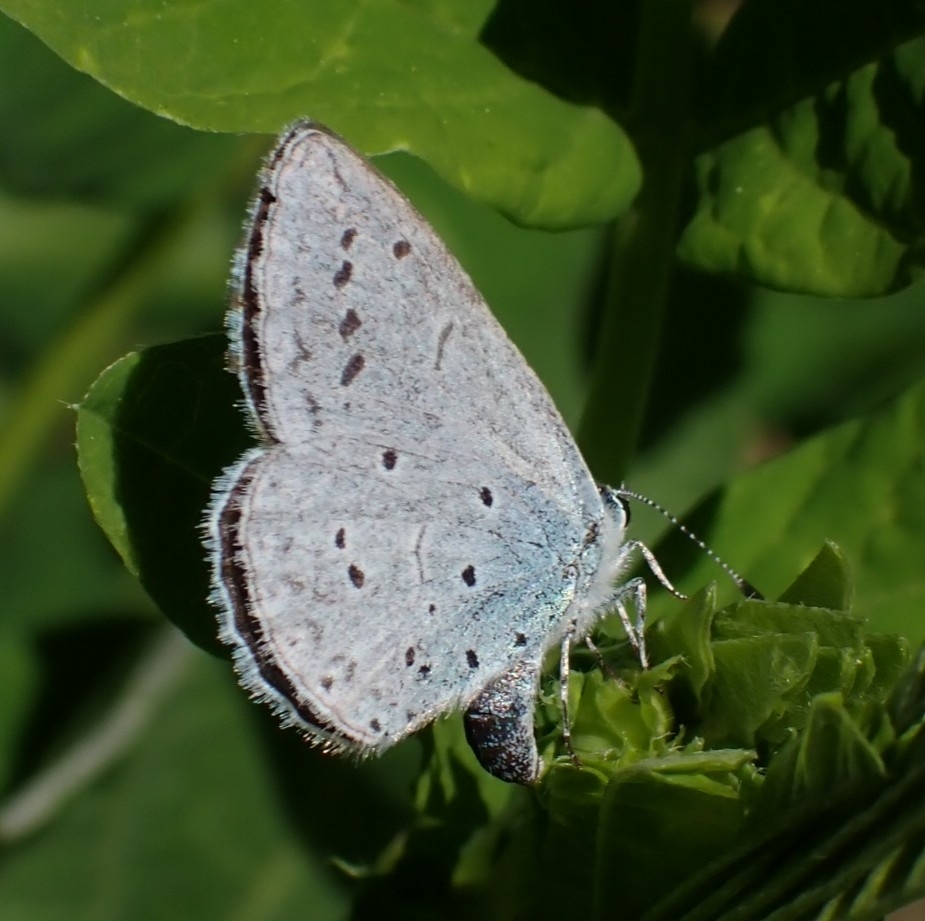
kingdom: Animalia
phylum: Arthropoda
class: Insecta
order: Lepidoptera
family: Lycaenidae
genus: Celastrina
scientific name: Celastrina argiolus
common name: Holly blue
